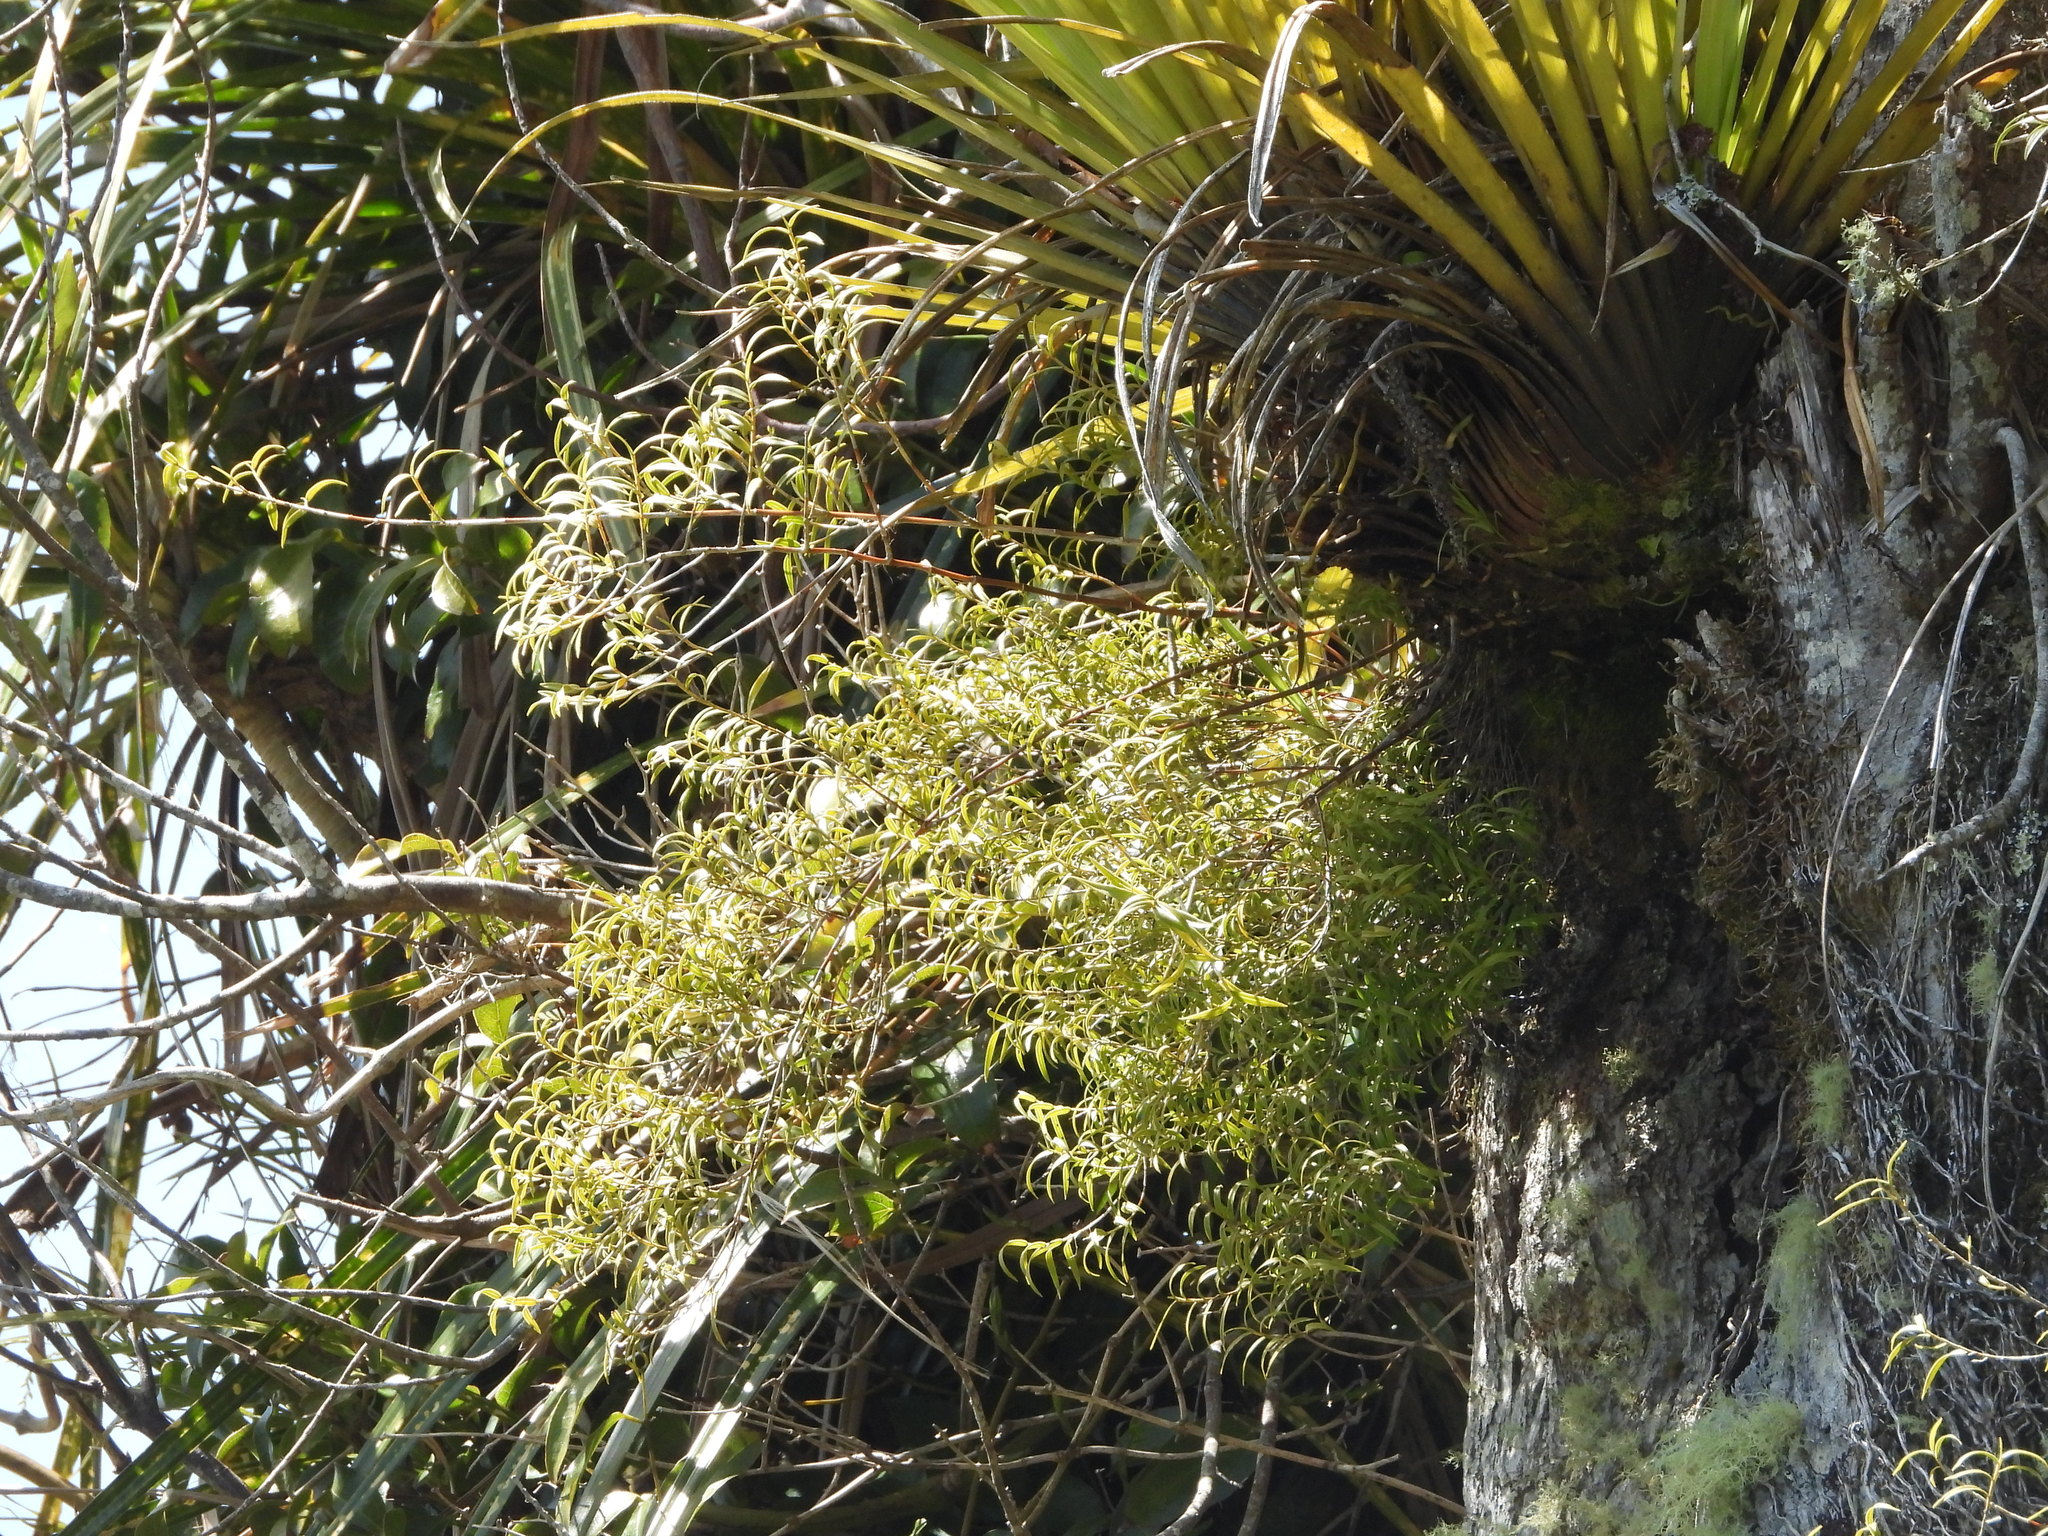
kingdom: Plantae
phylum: Tracheophyta
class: Liliopsida
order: Asparagales
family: Orchidaceae
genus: Dendrobium
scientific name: Dendrobium cunninghamii
